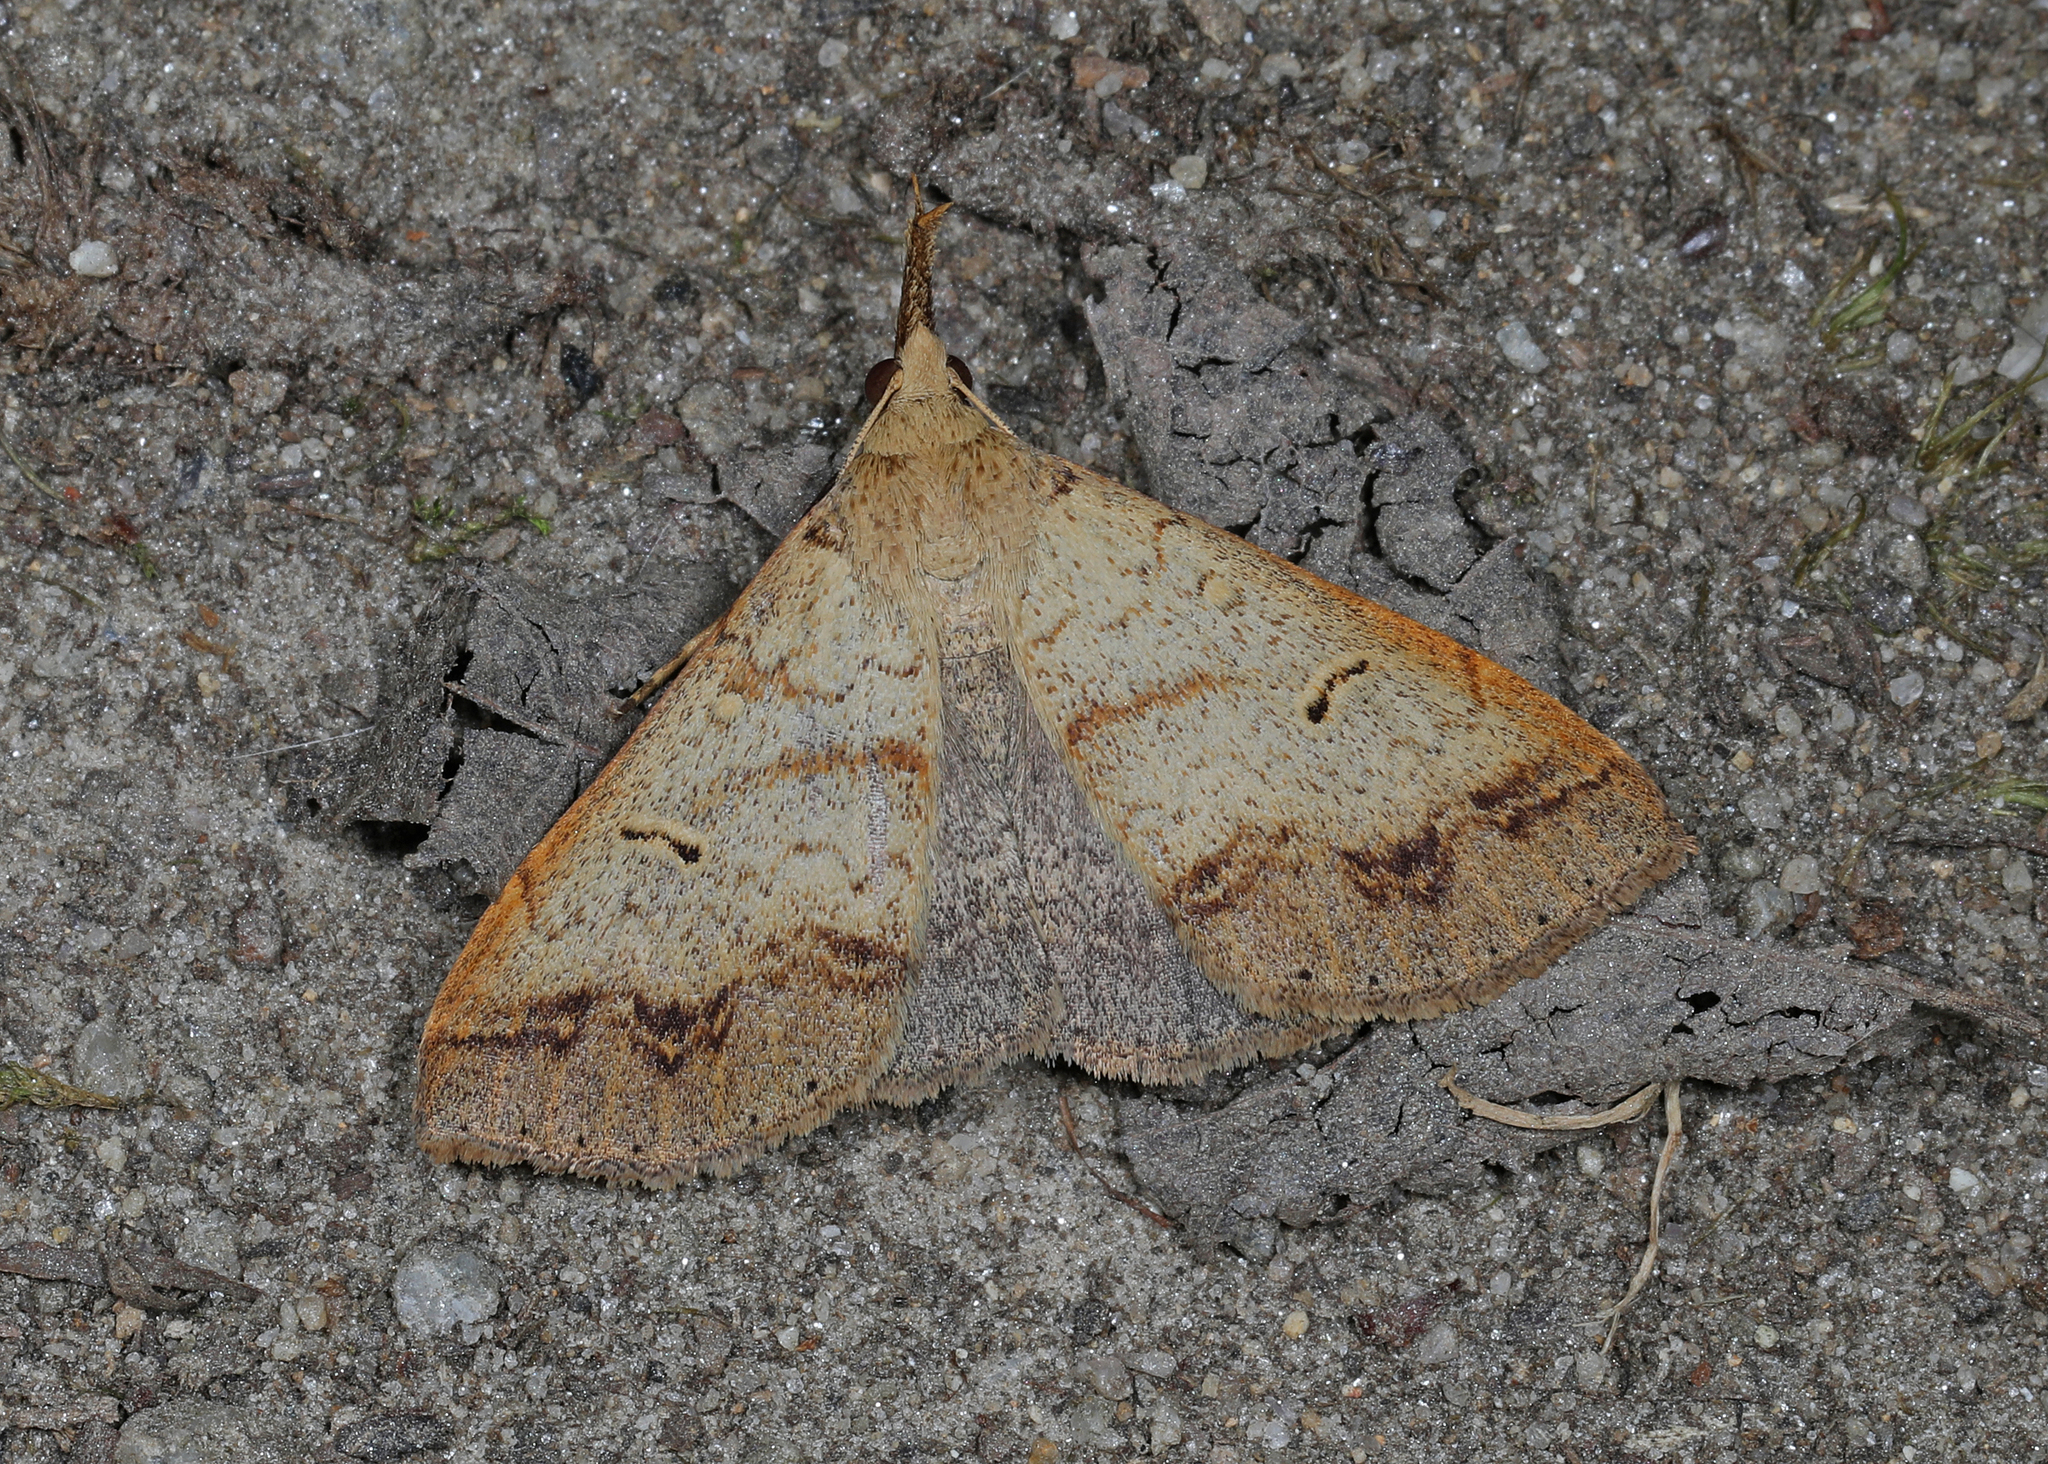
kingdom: Animalia
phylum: Arthropoda
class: Insecta
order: Lepidoptera
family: Erebidae
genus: Renia
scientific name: Renia discoloralis
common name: Discolored renia moth
